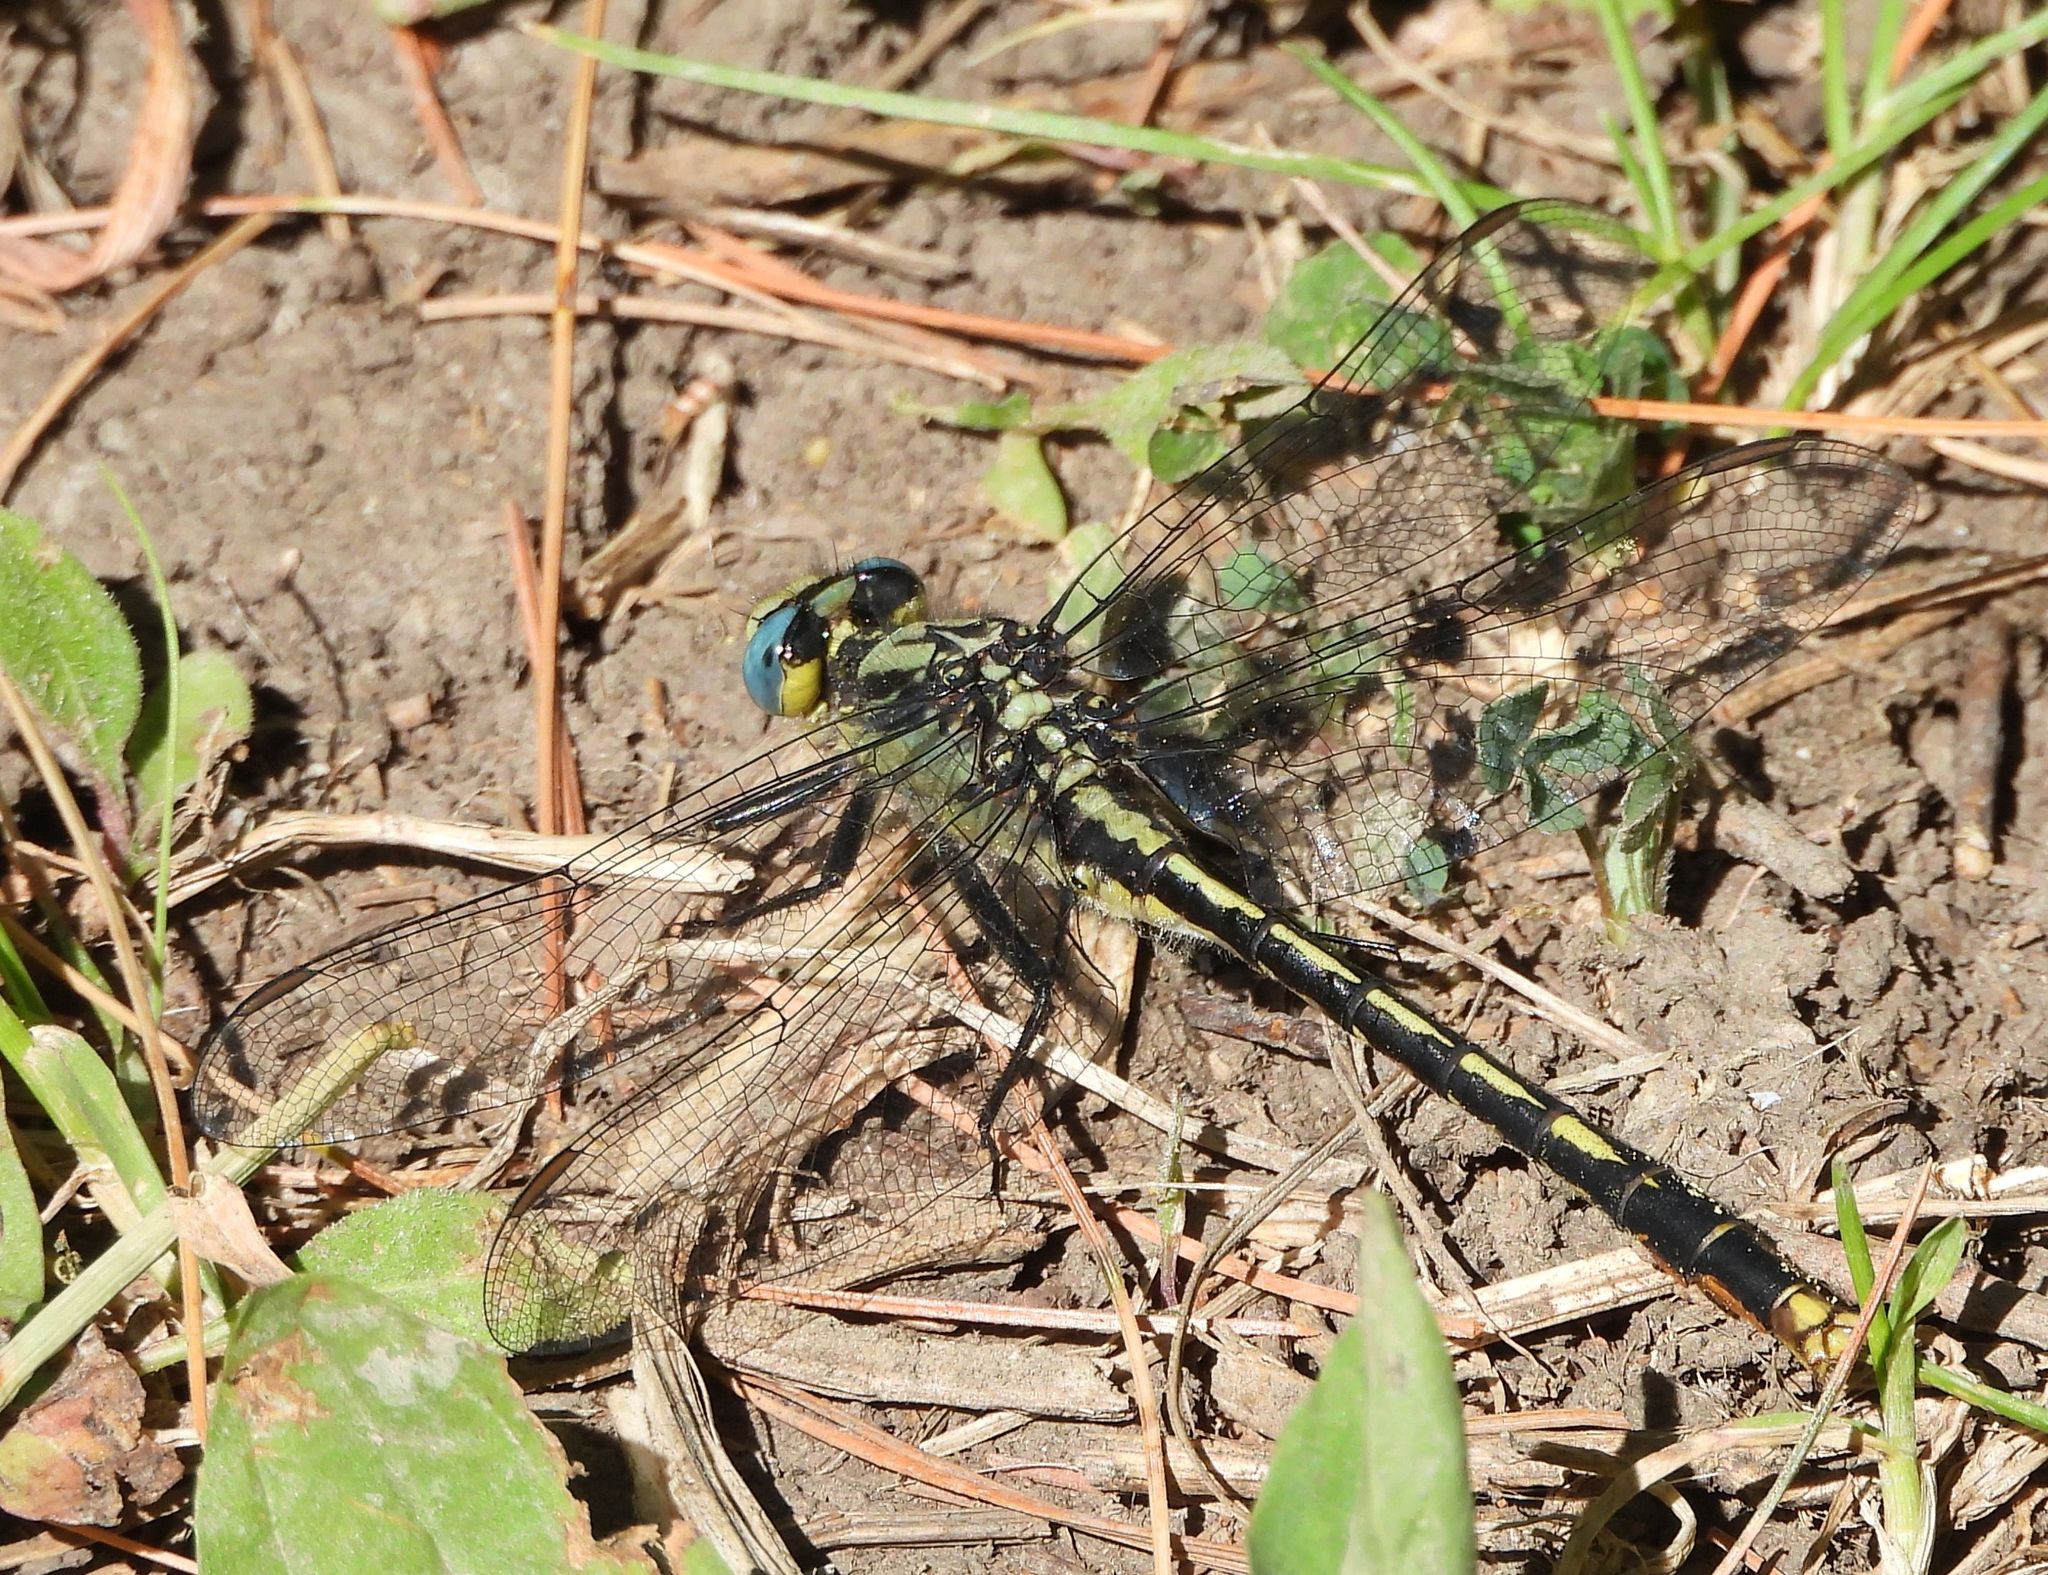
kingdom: Animalia
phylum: Arthropoda
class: Insecta
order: Odonata
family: Gomphidae
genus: Arigomphus
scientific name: Arigomphus furcifer
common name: Lilypad clubtail
